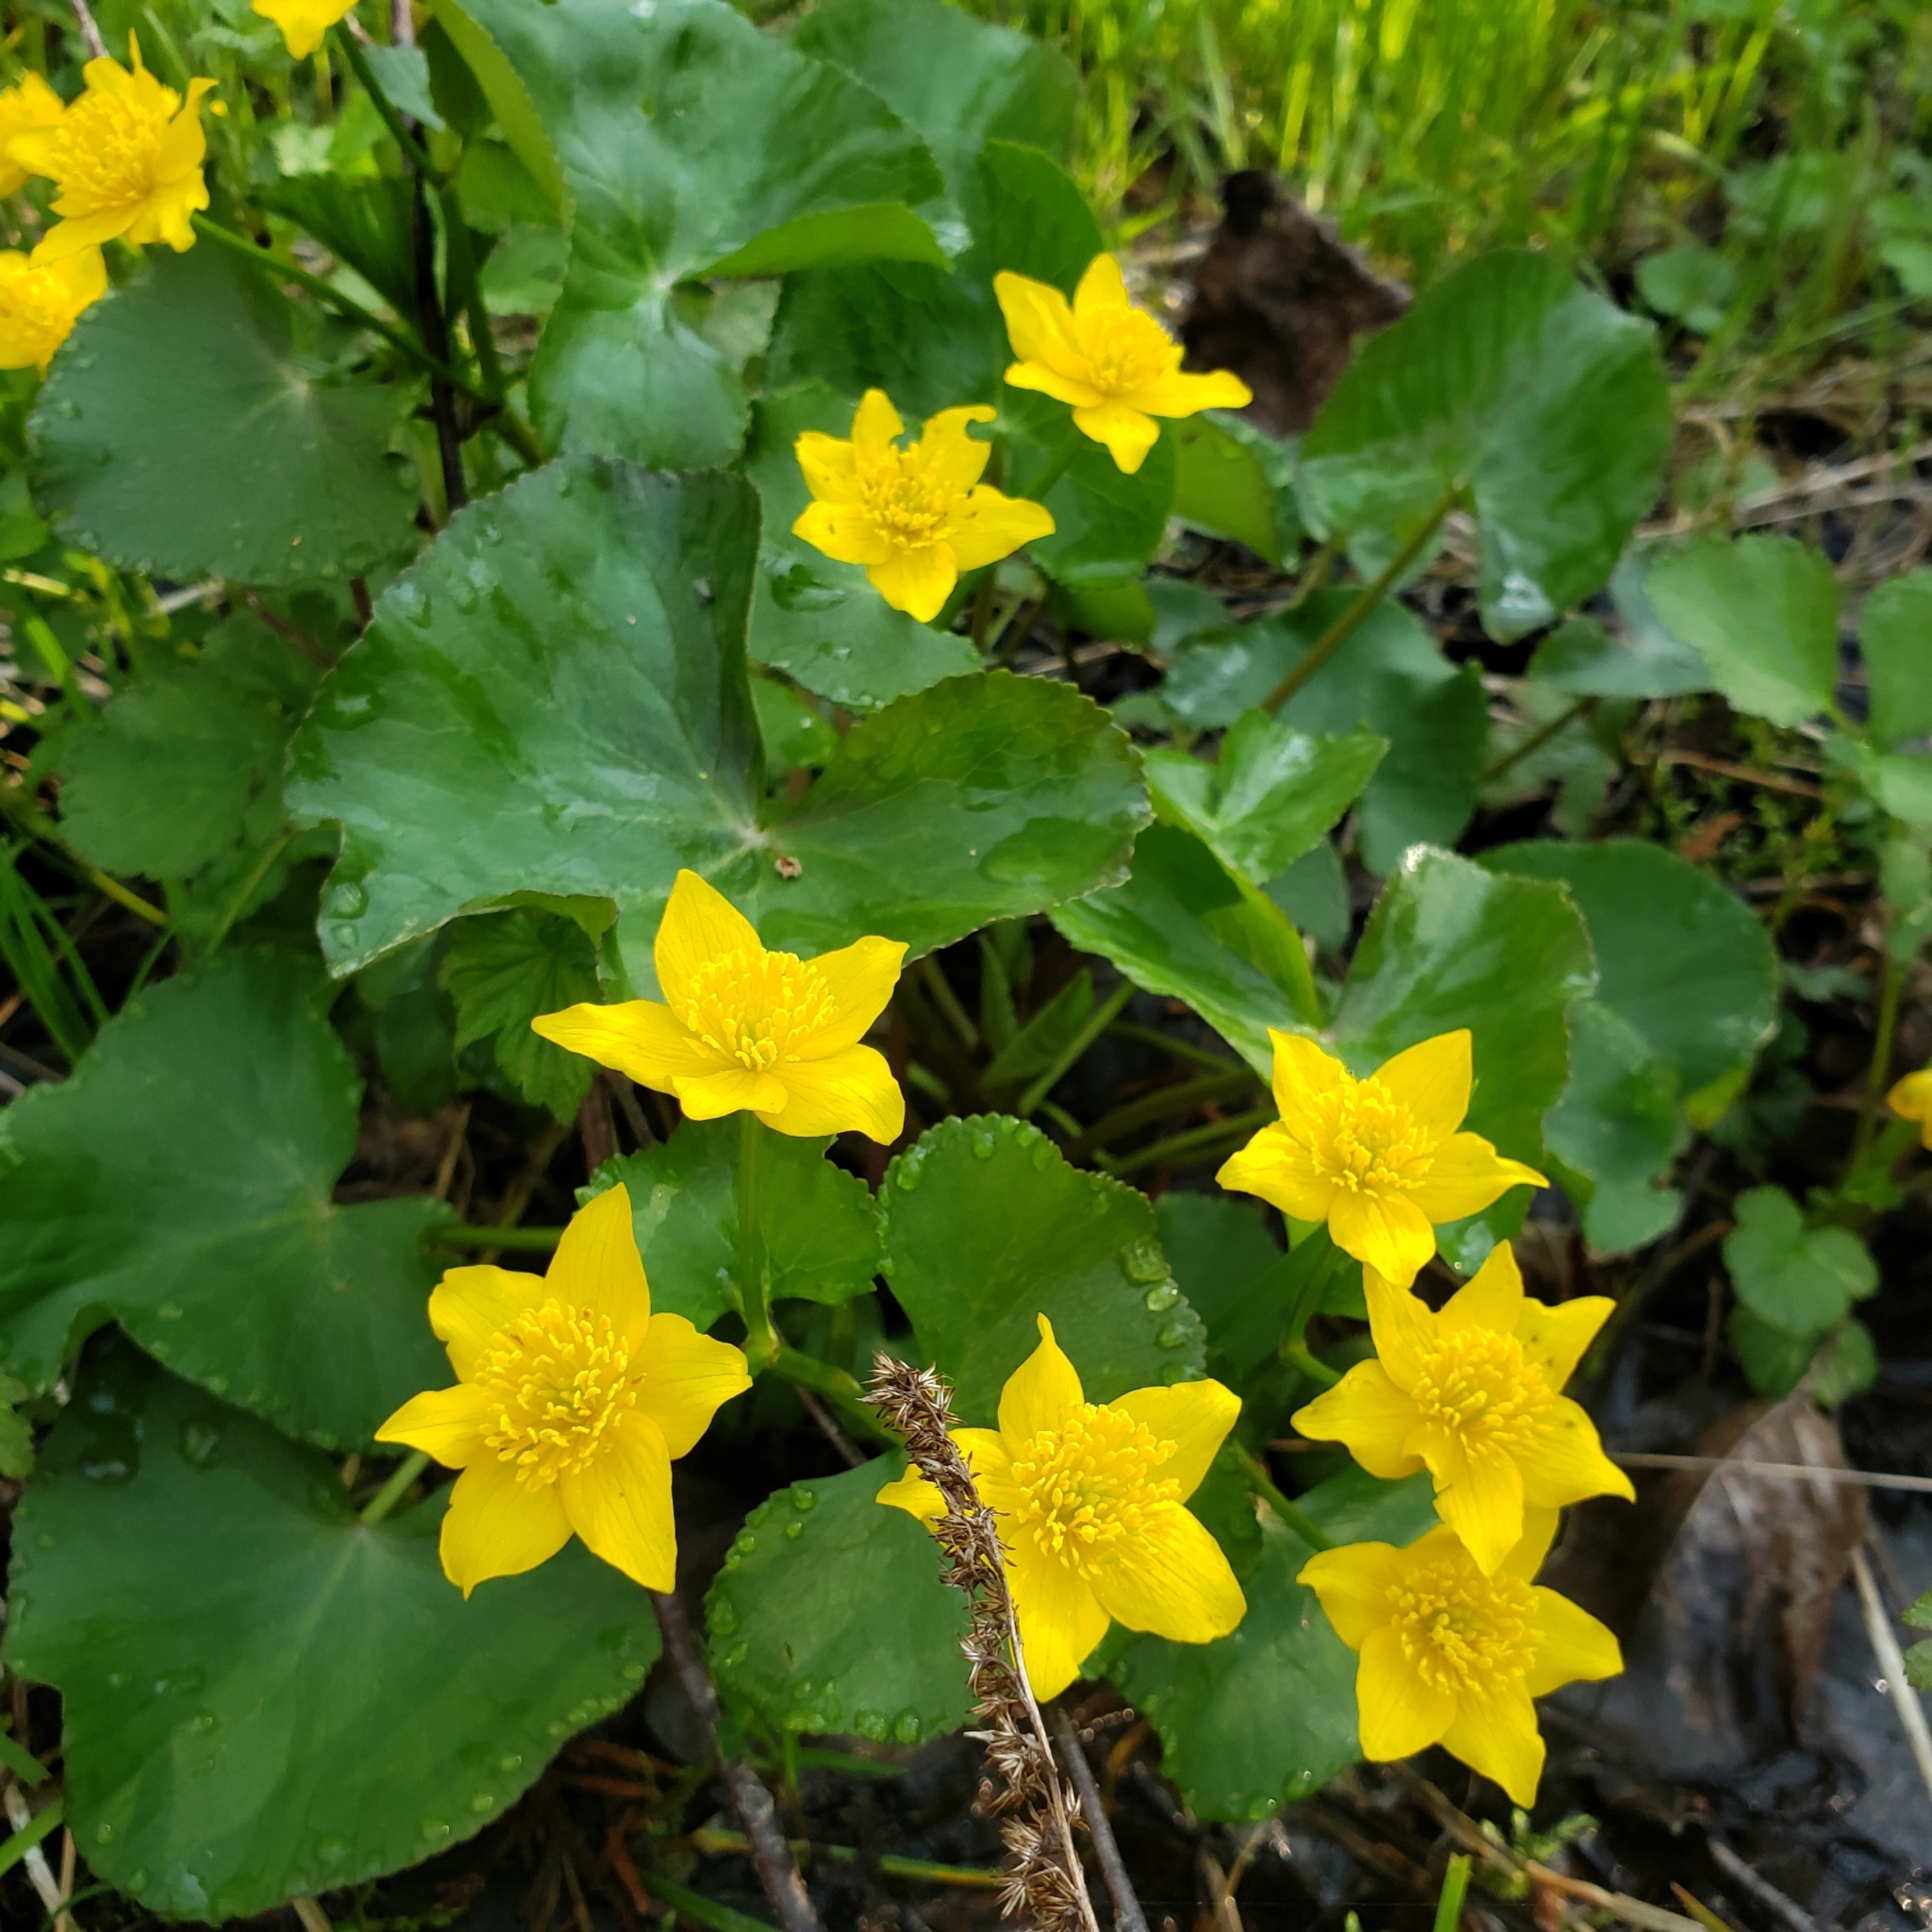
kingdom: Plantae
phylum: Tracheophyta
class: Magnoliopsida
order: Ranunculales
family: Ranunculaceae
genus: Caltha
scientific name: Caltha palustris
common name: Marsh marigold
